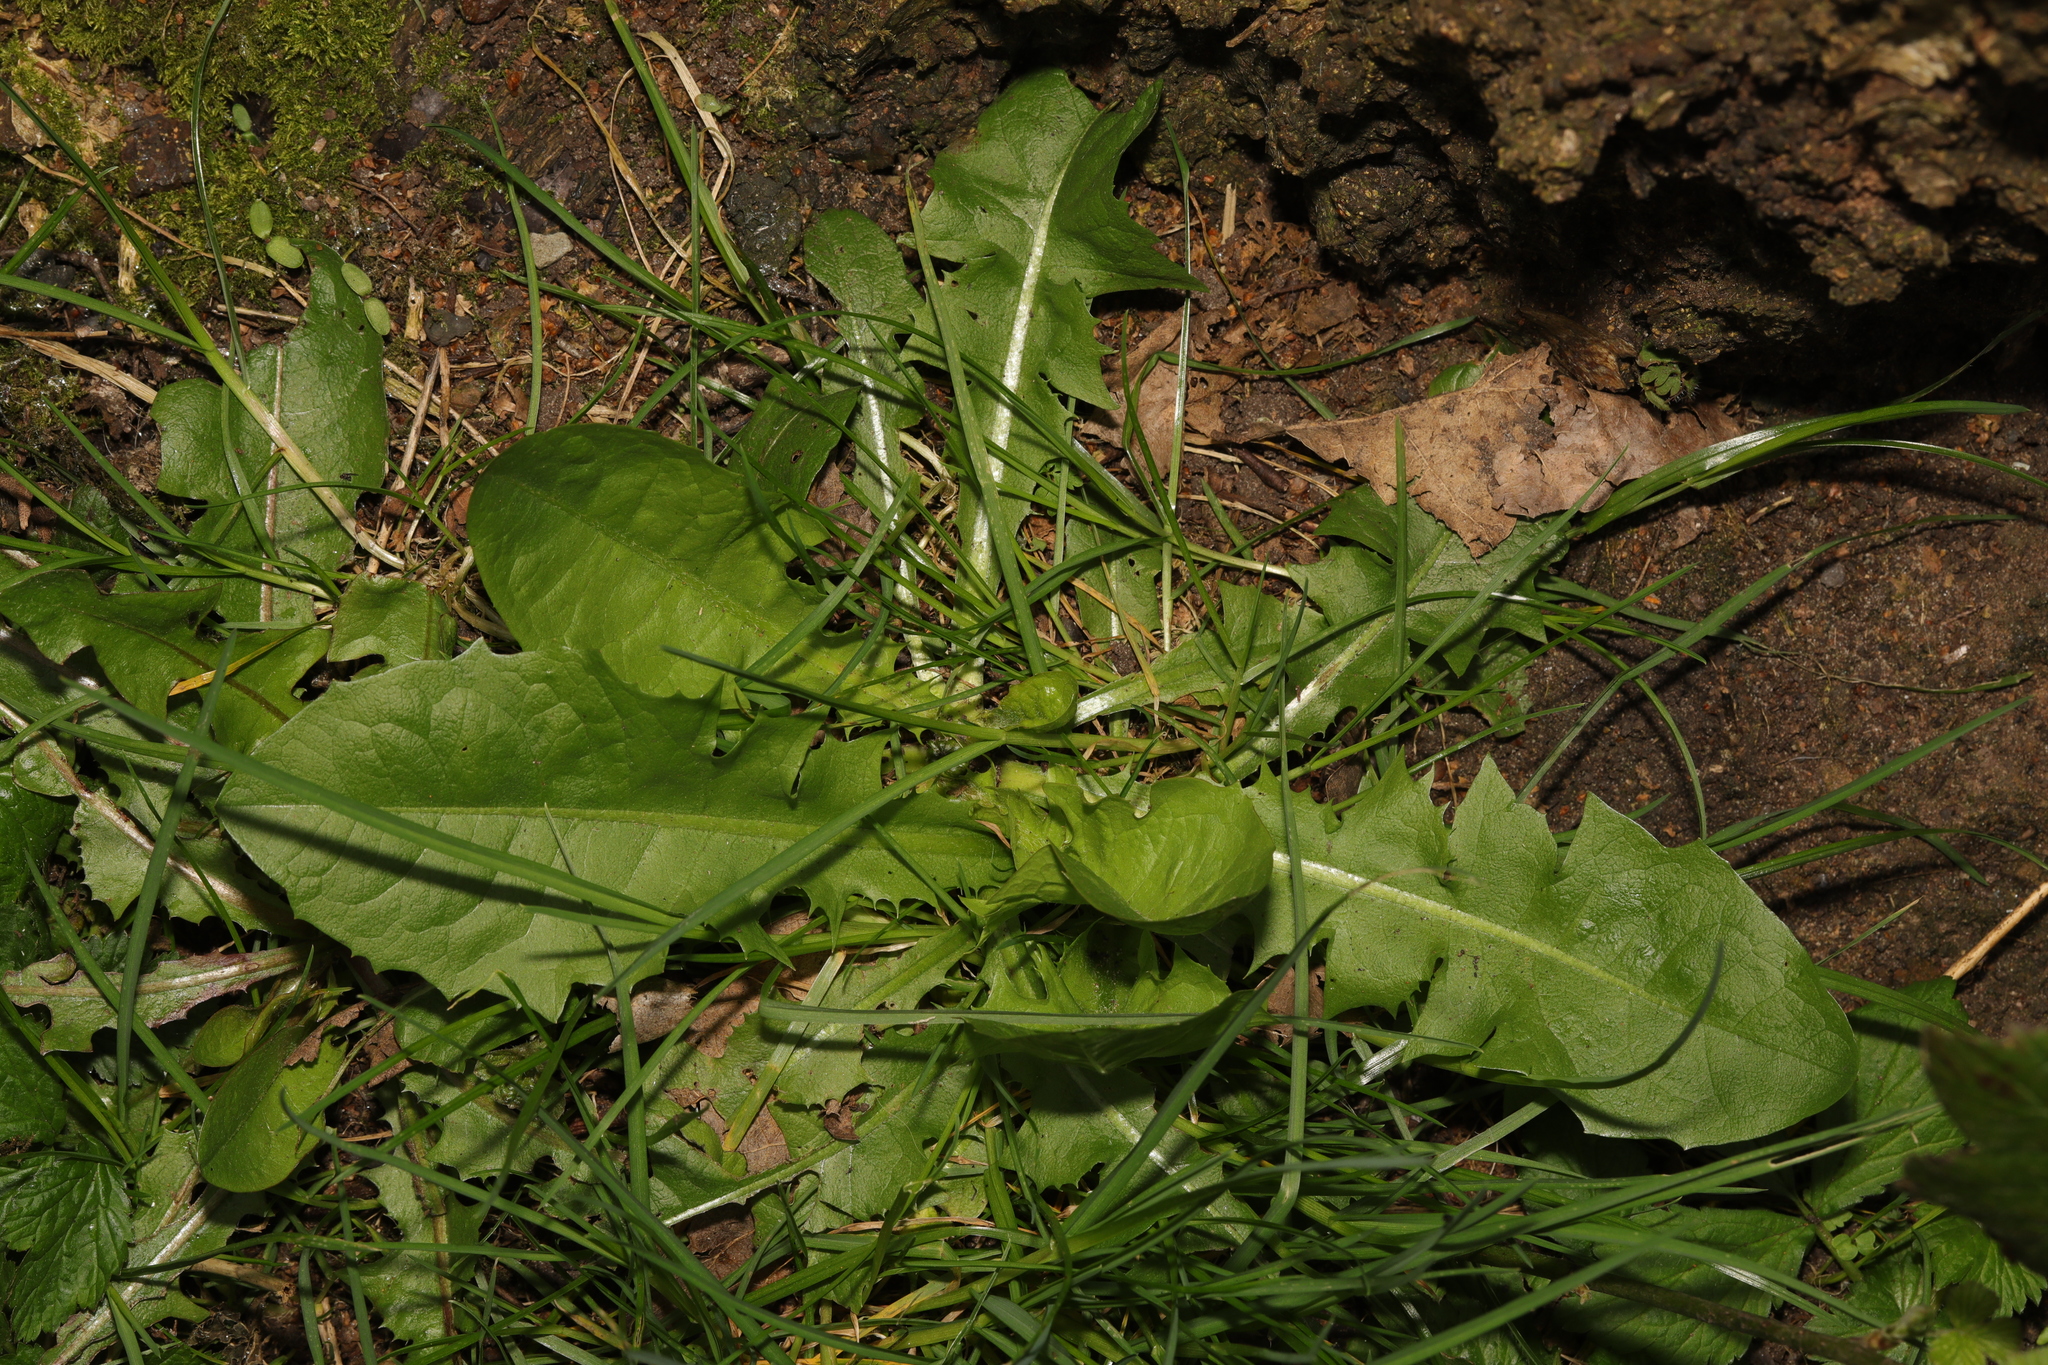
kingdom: Plantae
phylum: Tracheophyta
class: Magnoliopsida
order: Asterales
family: Asteraceae
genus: Taraxacum
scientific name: Taraxacum officinale
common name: Common dandelion
